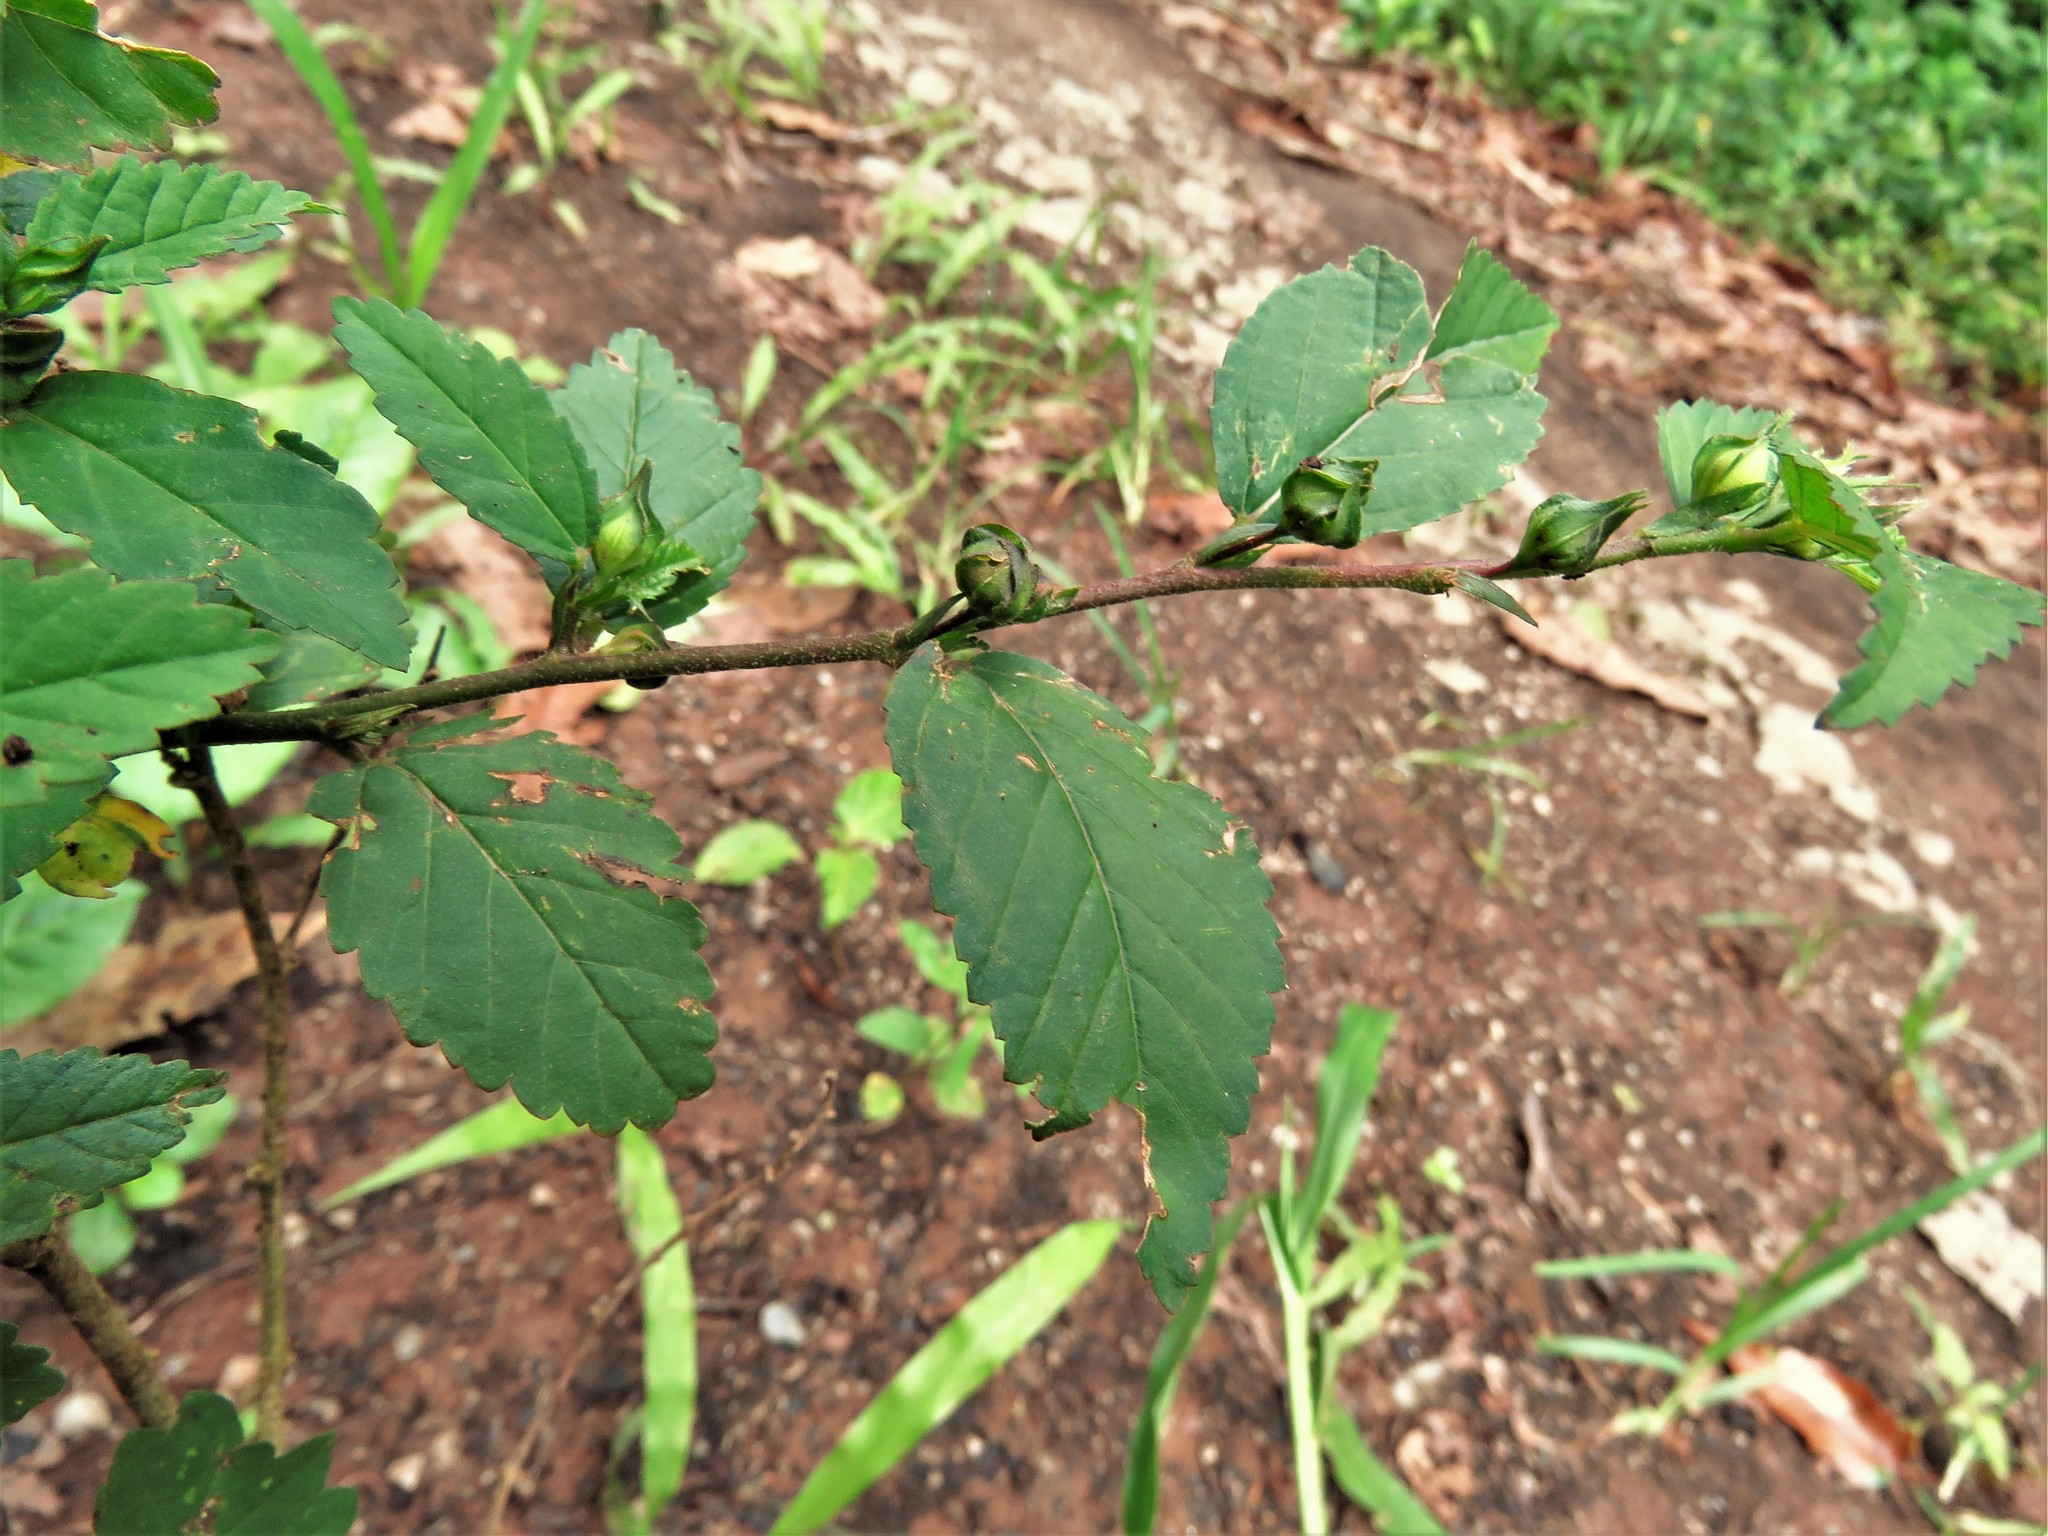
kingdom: Plantae
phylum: Tracheophyta
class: Magnoliopsida
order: Malvales
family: Malvaceae
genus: Sida
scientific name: Sida rhombifolia
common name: Queensland-hemp
